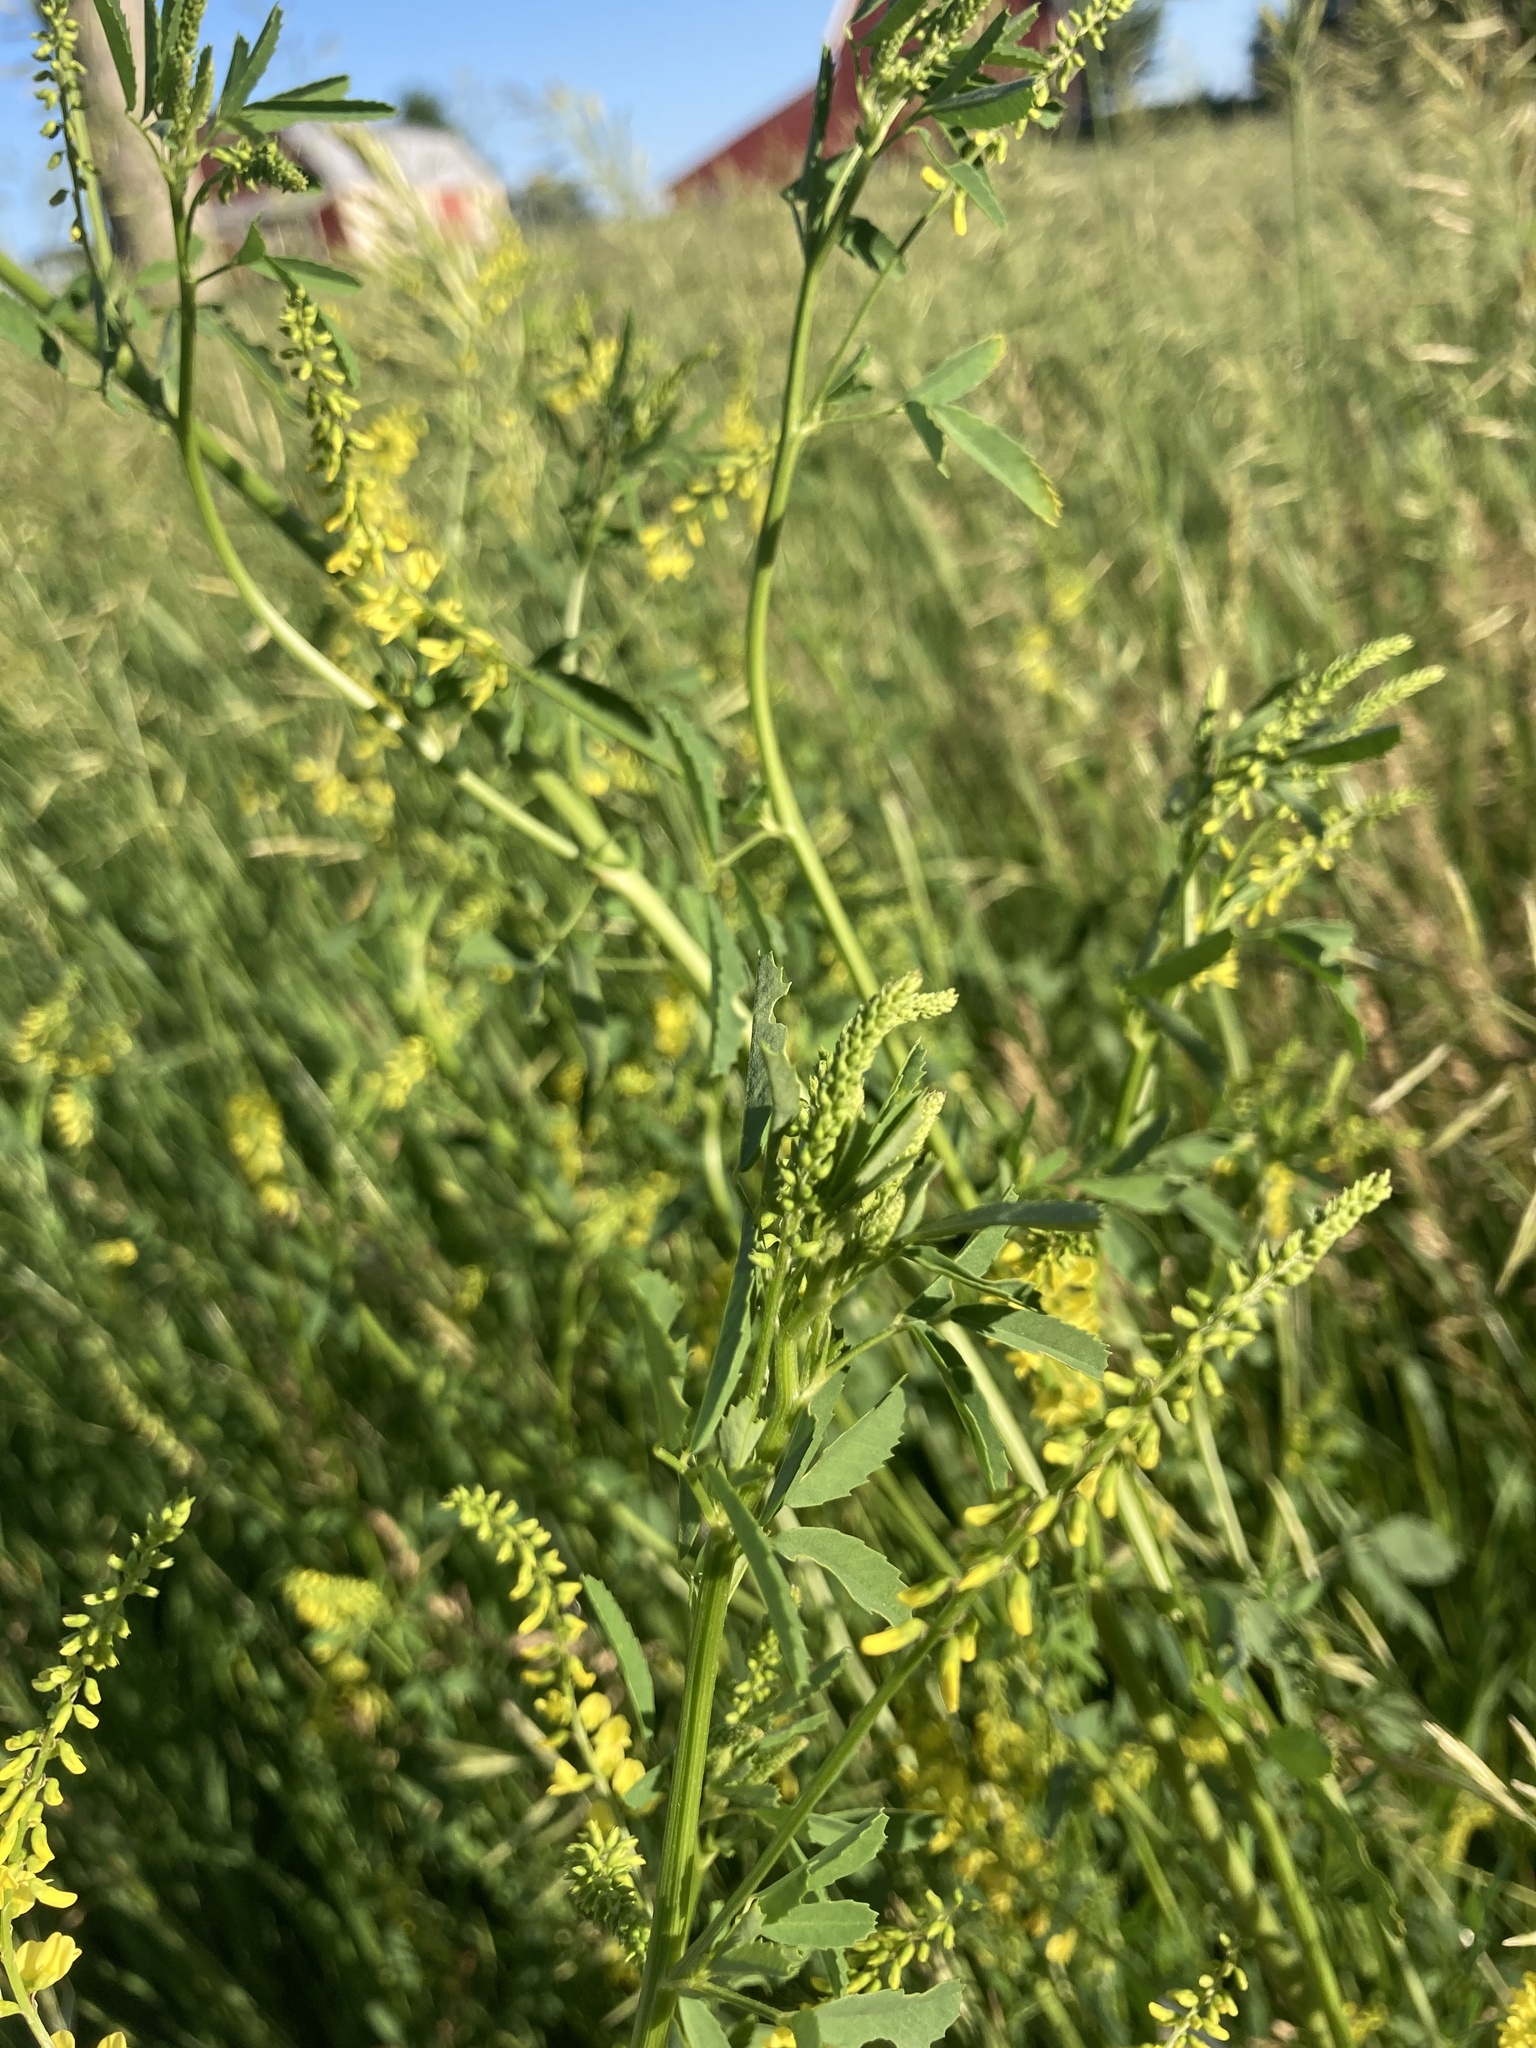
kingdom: Plantae
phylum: Tracheophyta
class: Magnoliopsida
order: Fabales
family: Fabaceae
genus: Melilotus
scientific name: Melilotus officinalis
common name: Sweetclover
